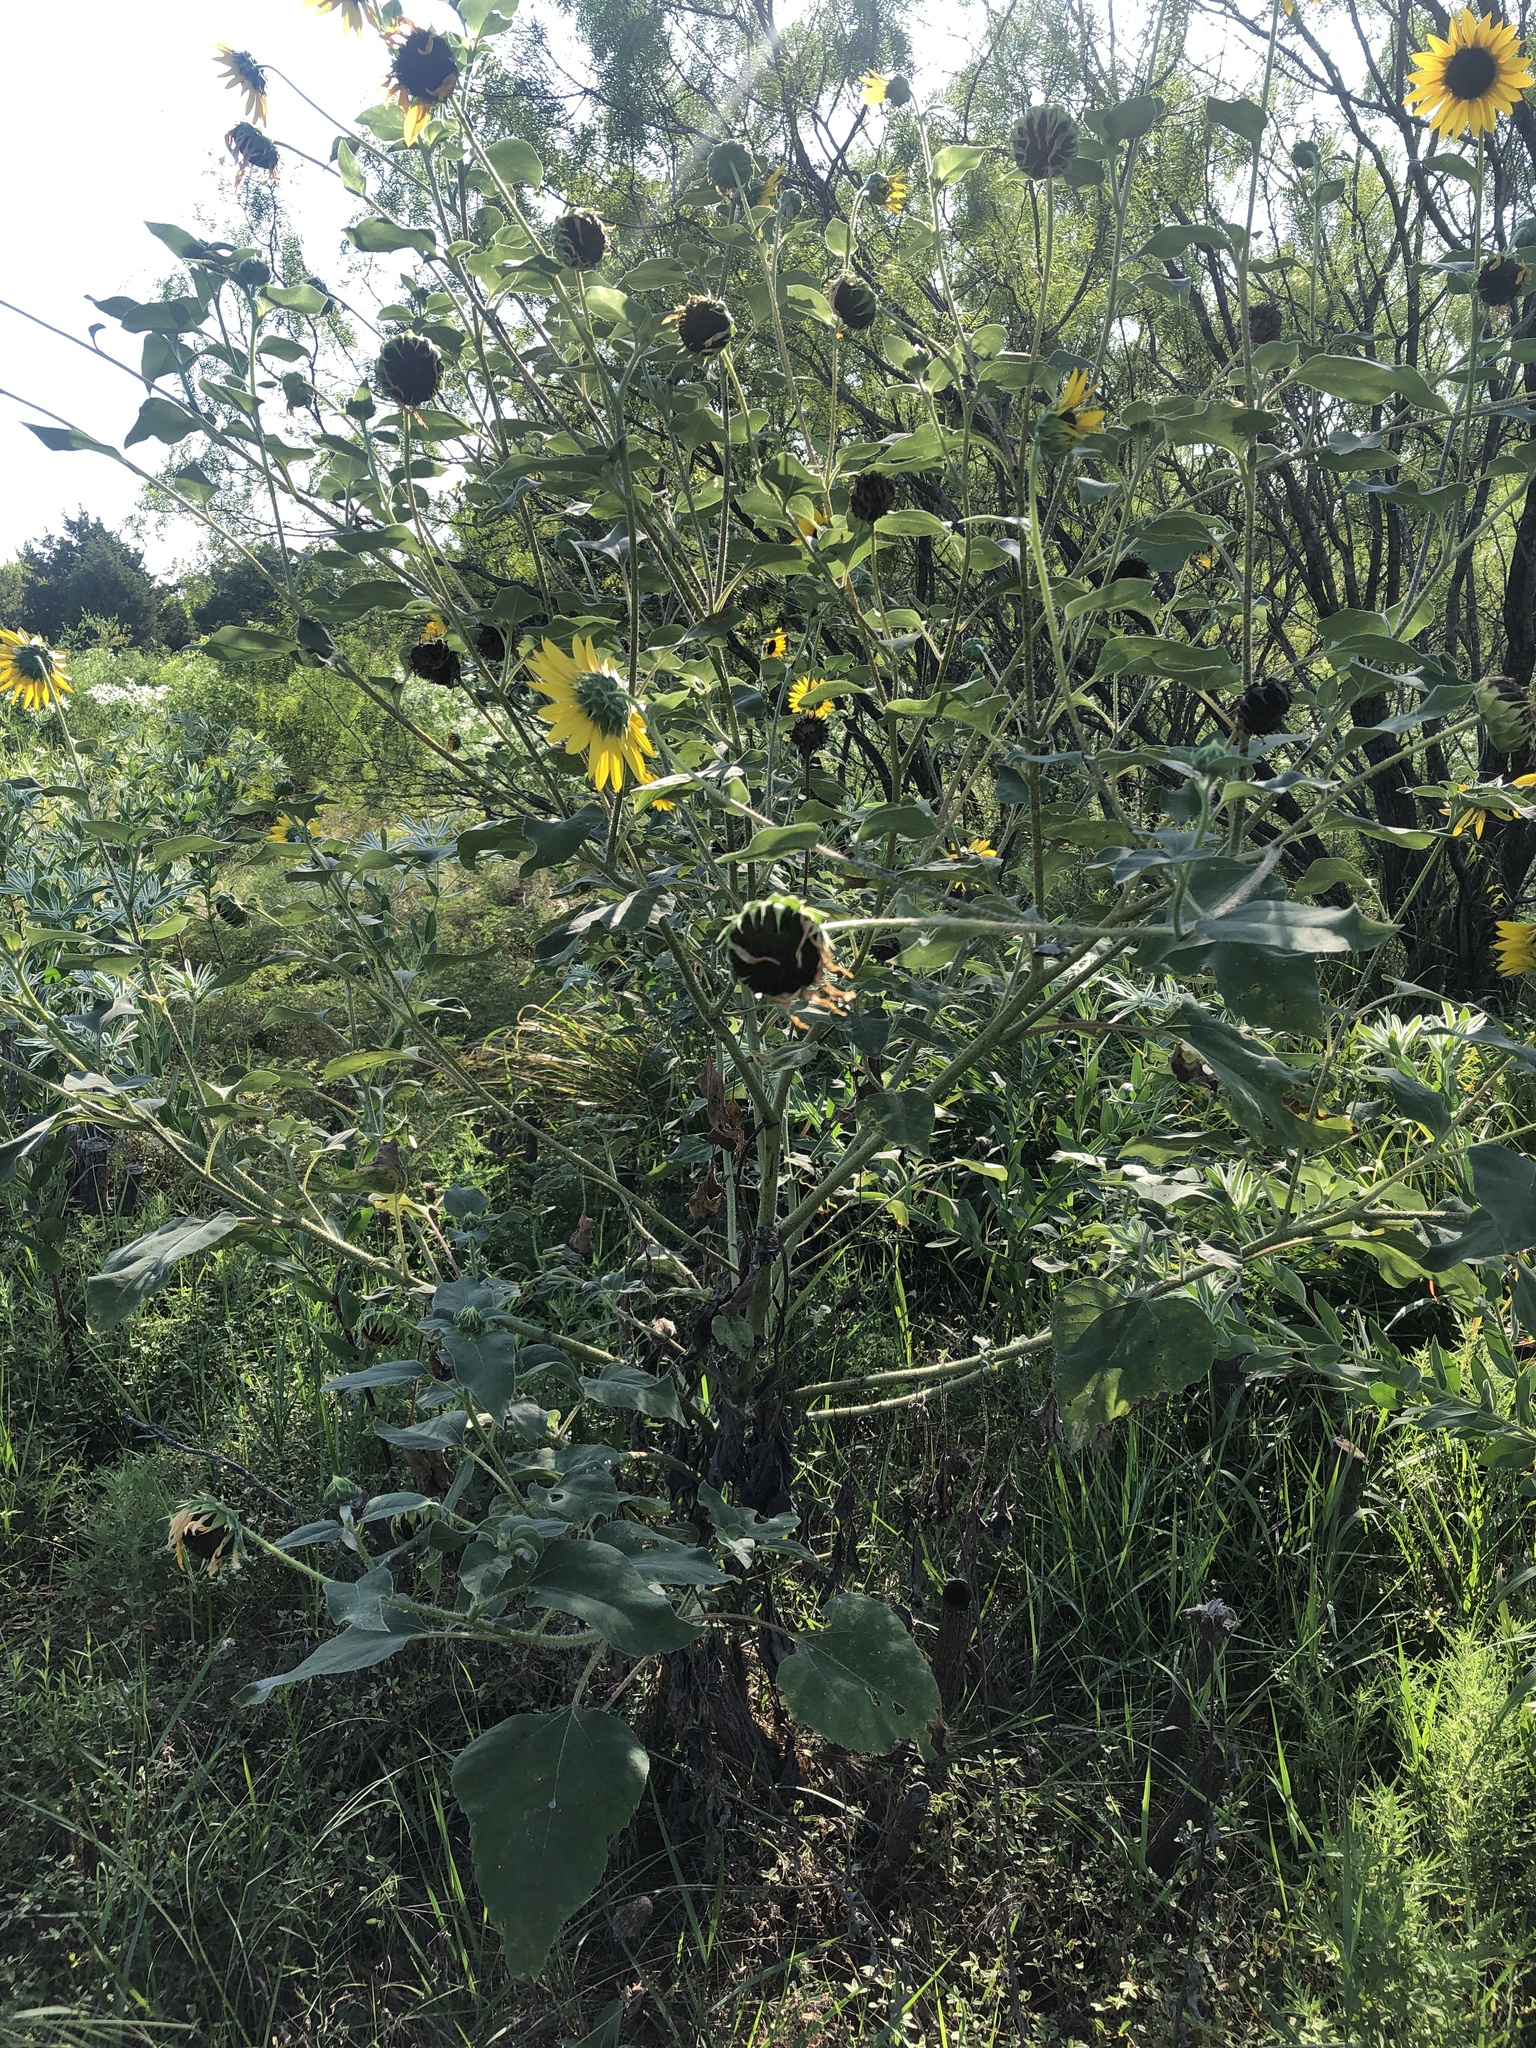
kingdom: Plantae
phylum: Tracheophyta
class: Magnoliopsida
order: Asterales
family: Asteraceae
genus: Helianthus
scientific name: Helianthus annuus
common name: Sunflower
